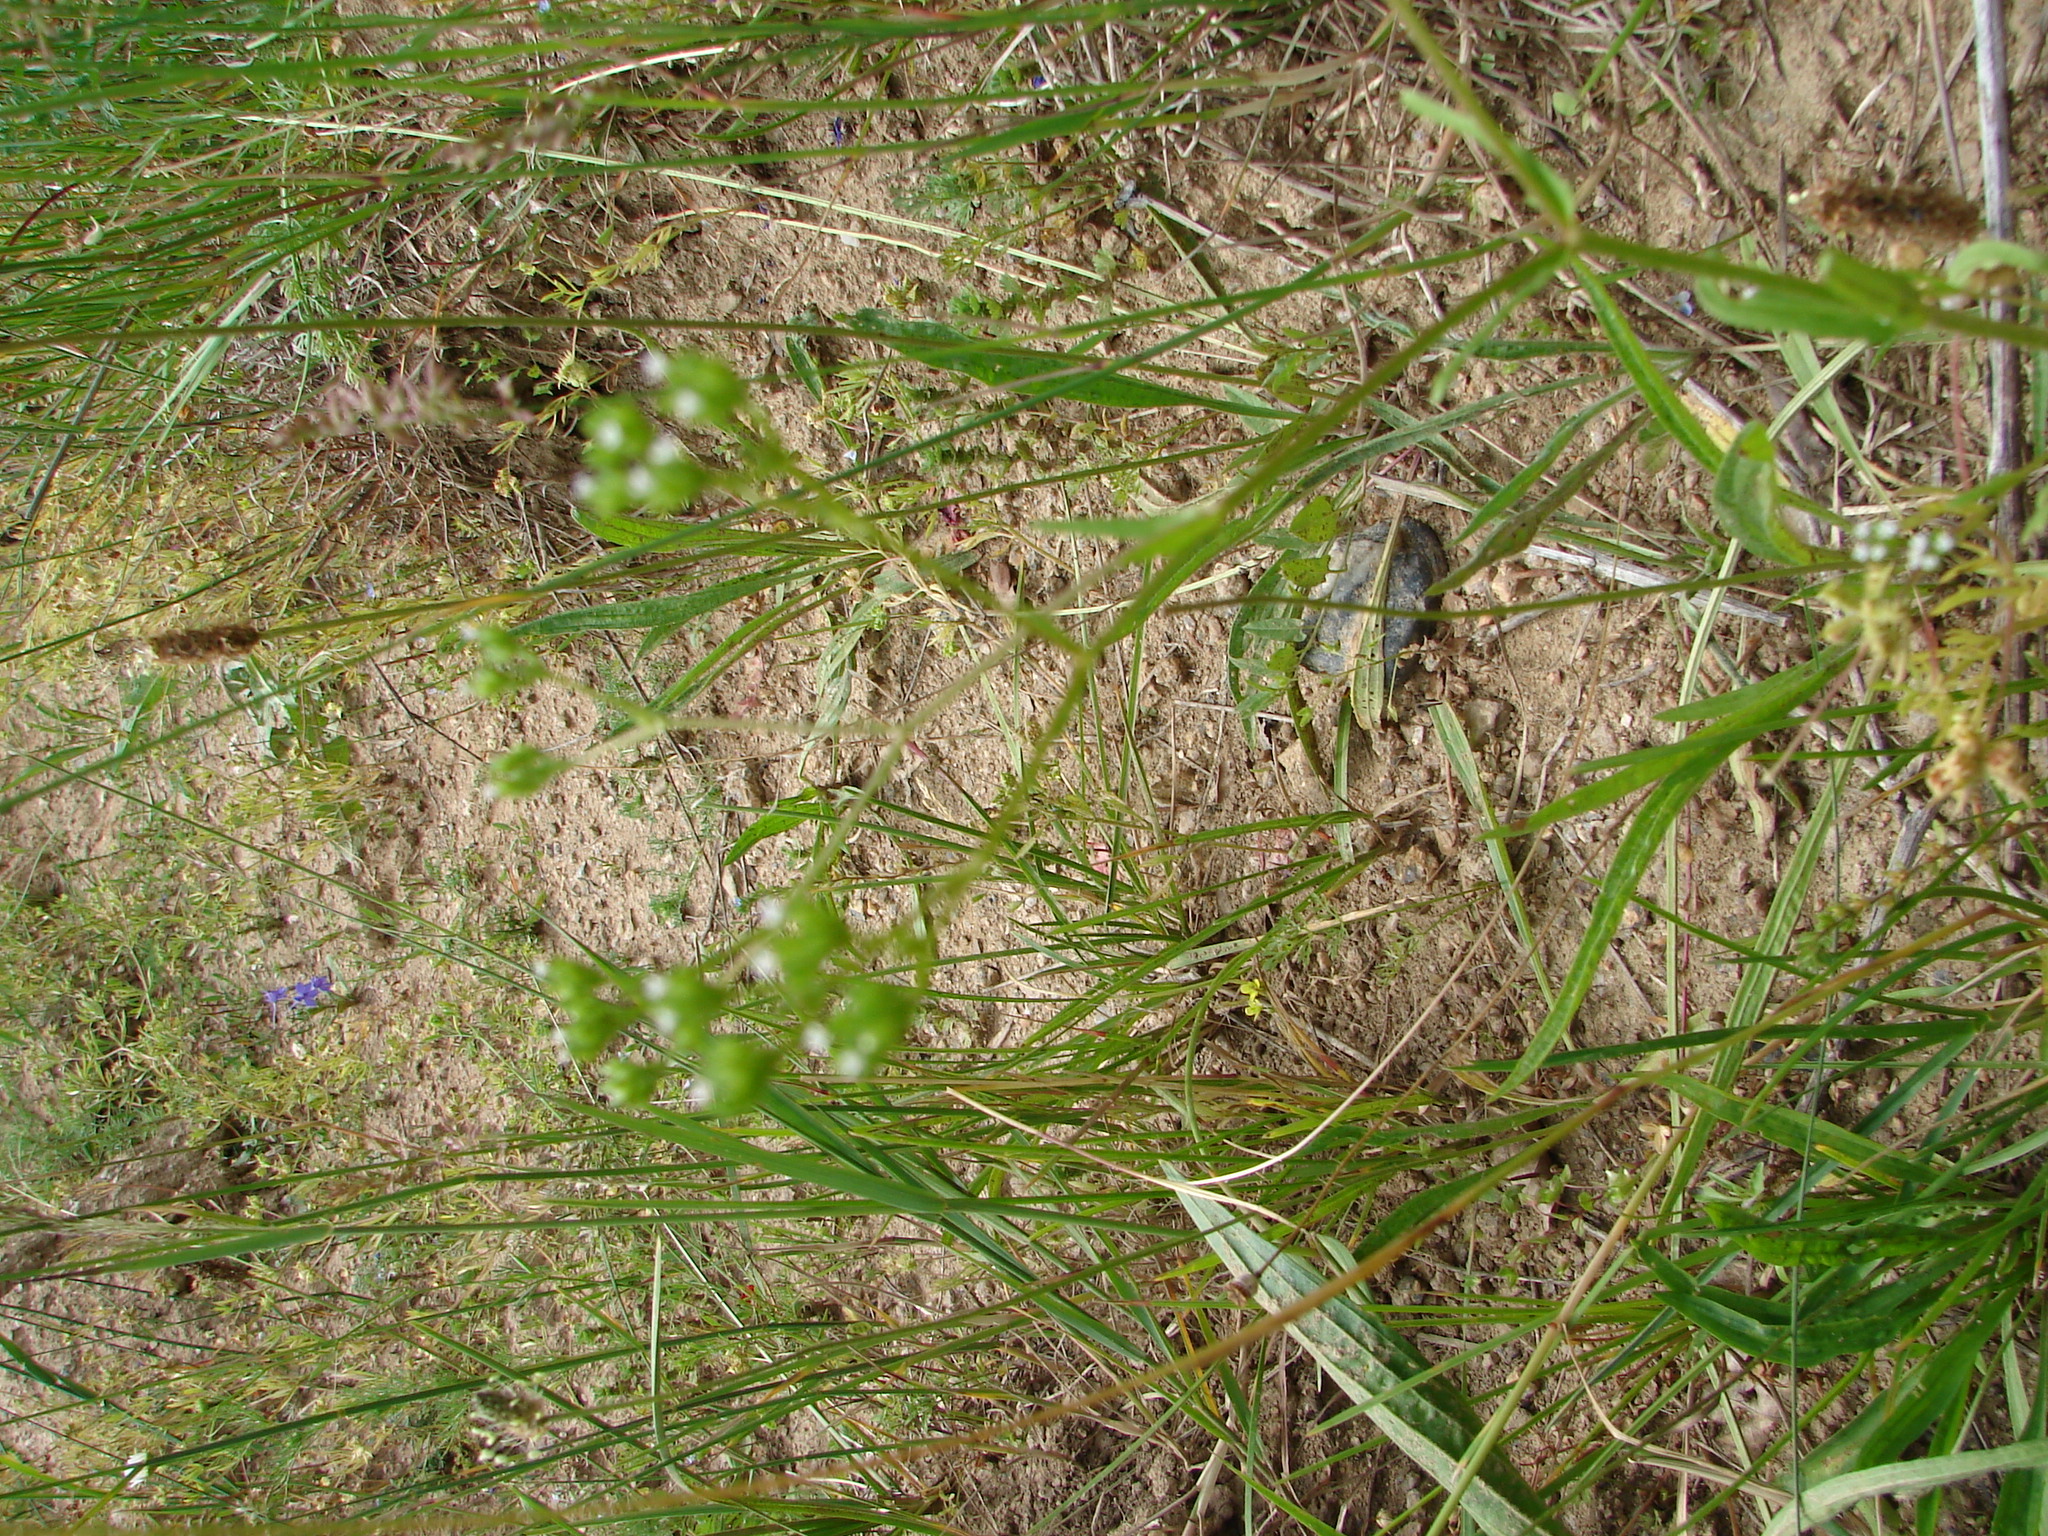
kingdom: Plantae
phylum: Tracheophyta
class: Magnoliopsida
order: Dipsacales
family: Caprifoliaceae
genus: Valerianella
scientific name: Valerianella dentata
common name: Narrow-fruited cornsalad
